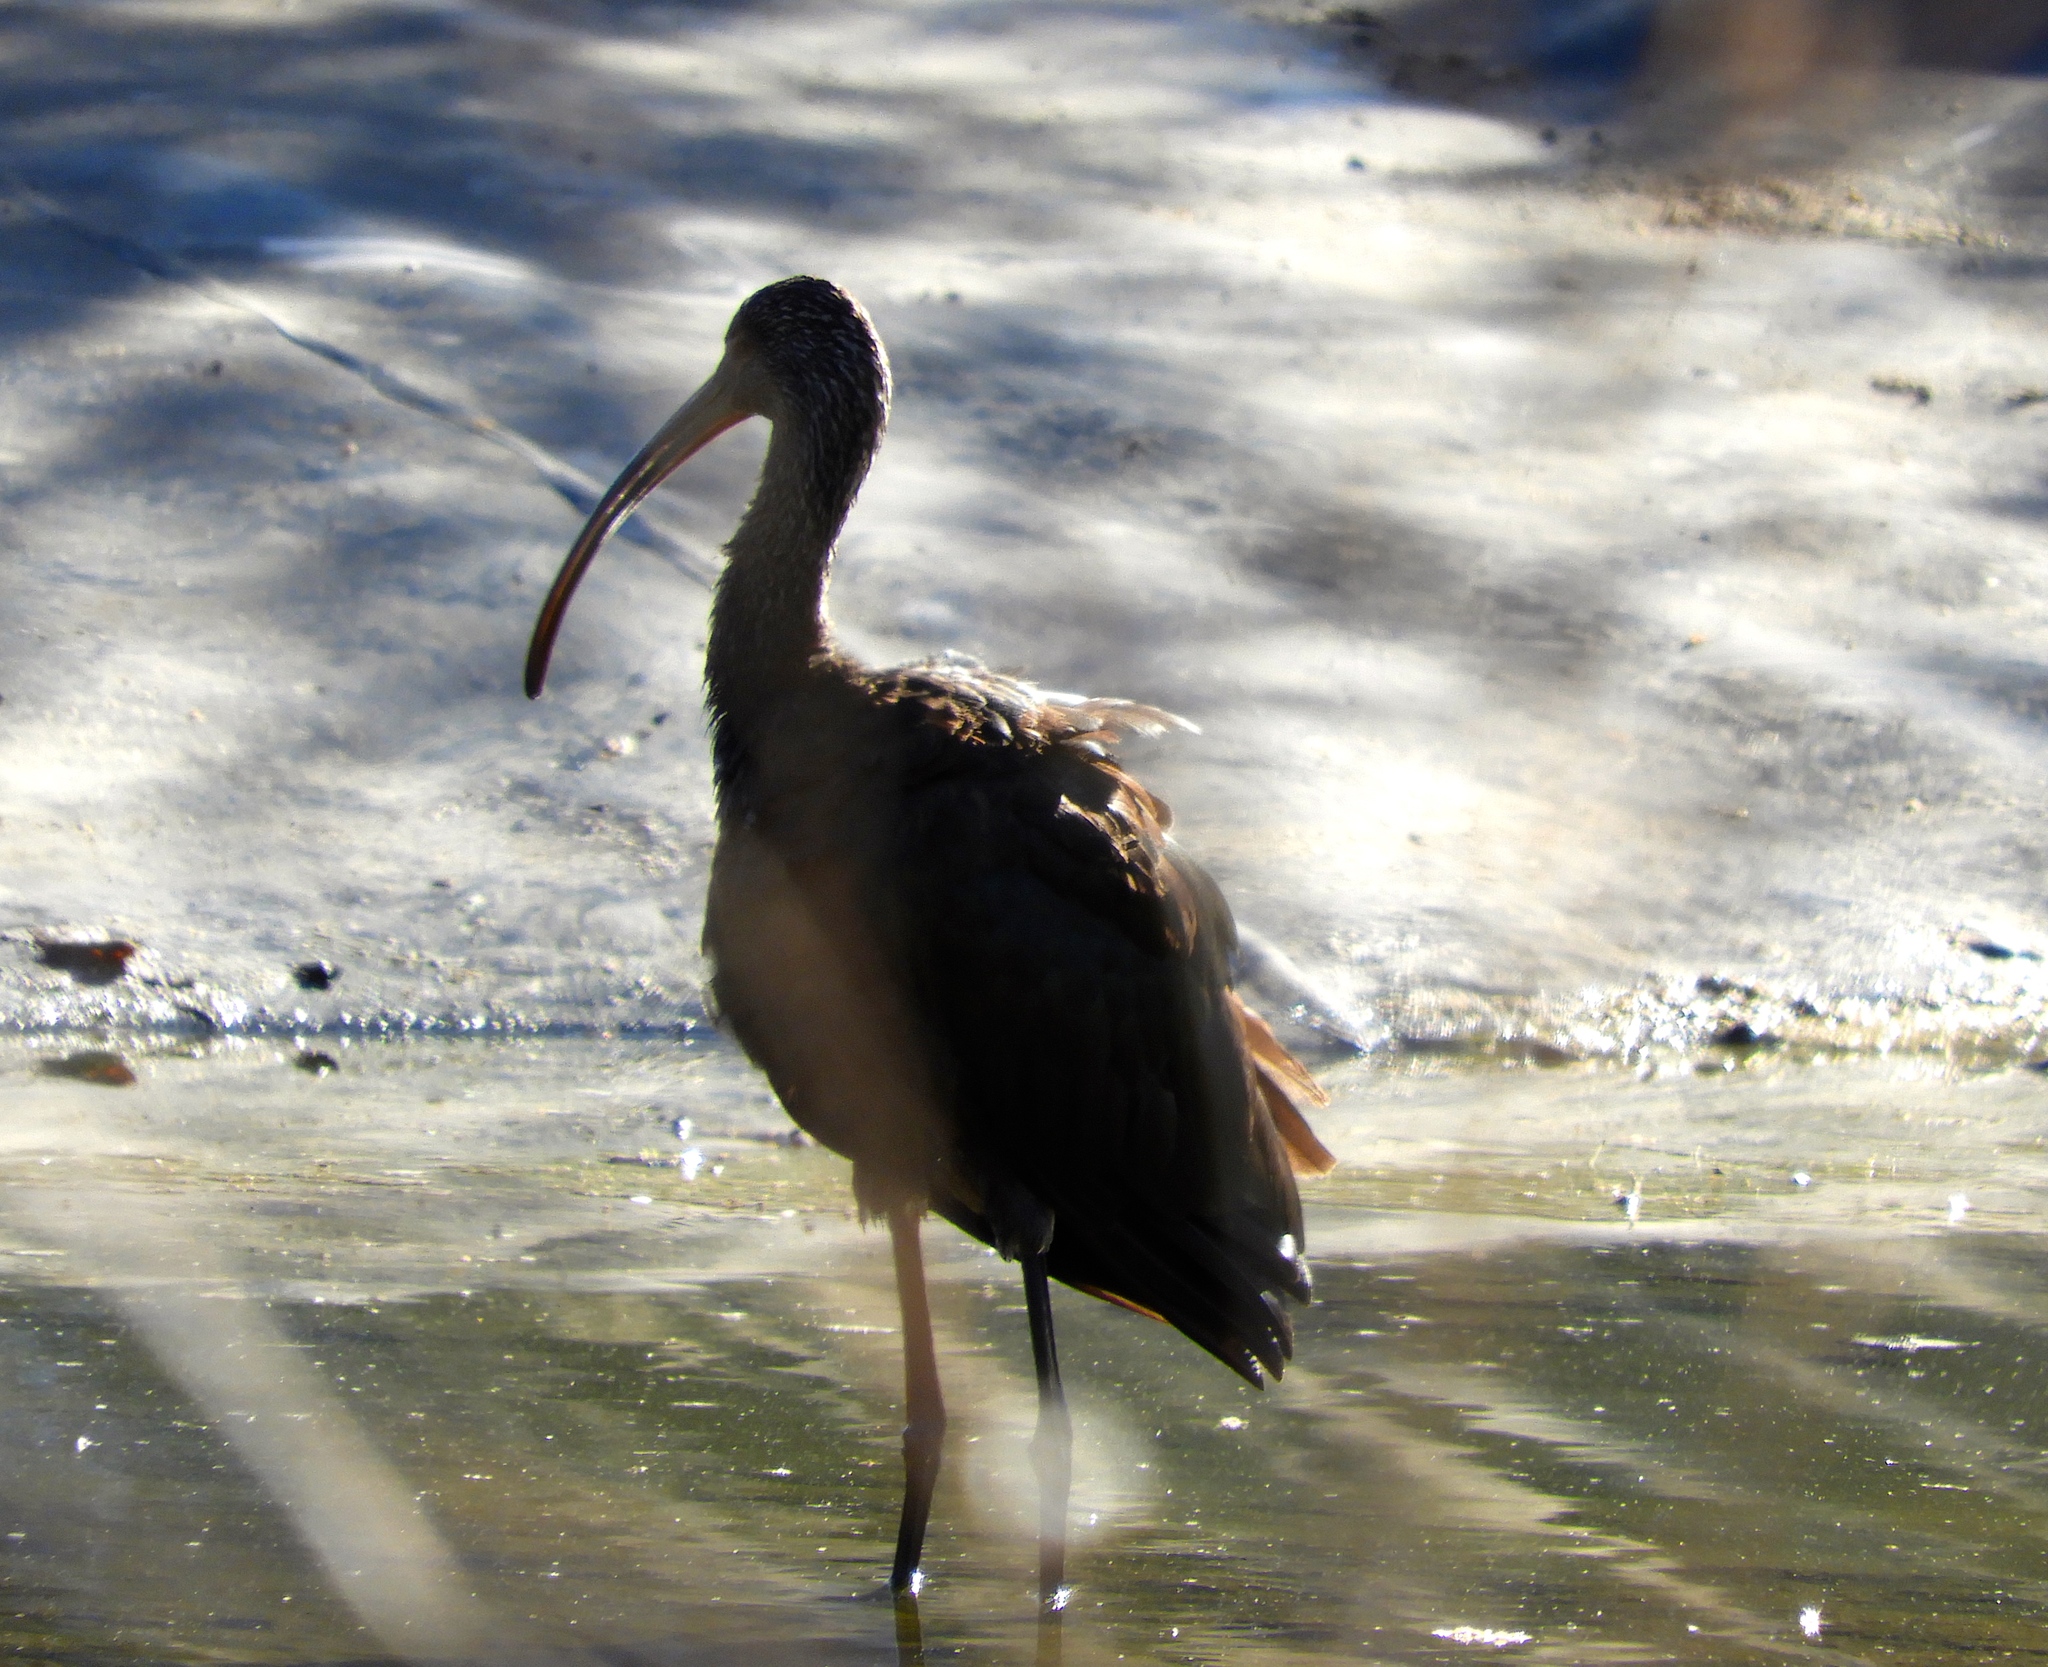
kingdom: Animalia
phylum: Chordata
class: Aves
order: Pelecaniformes
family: Threskiornithidae
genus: Plegadis
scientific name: Plegadis chihi
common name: White-faced ibis
